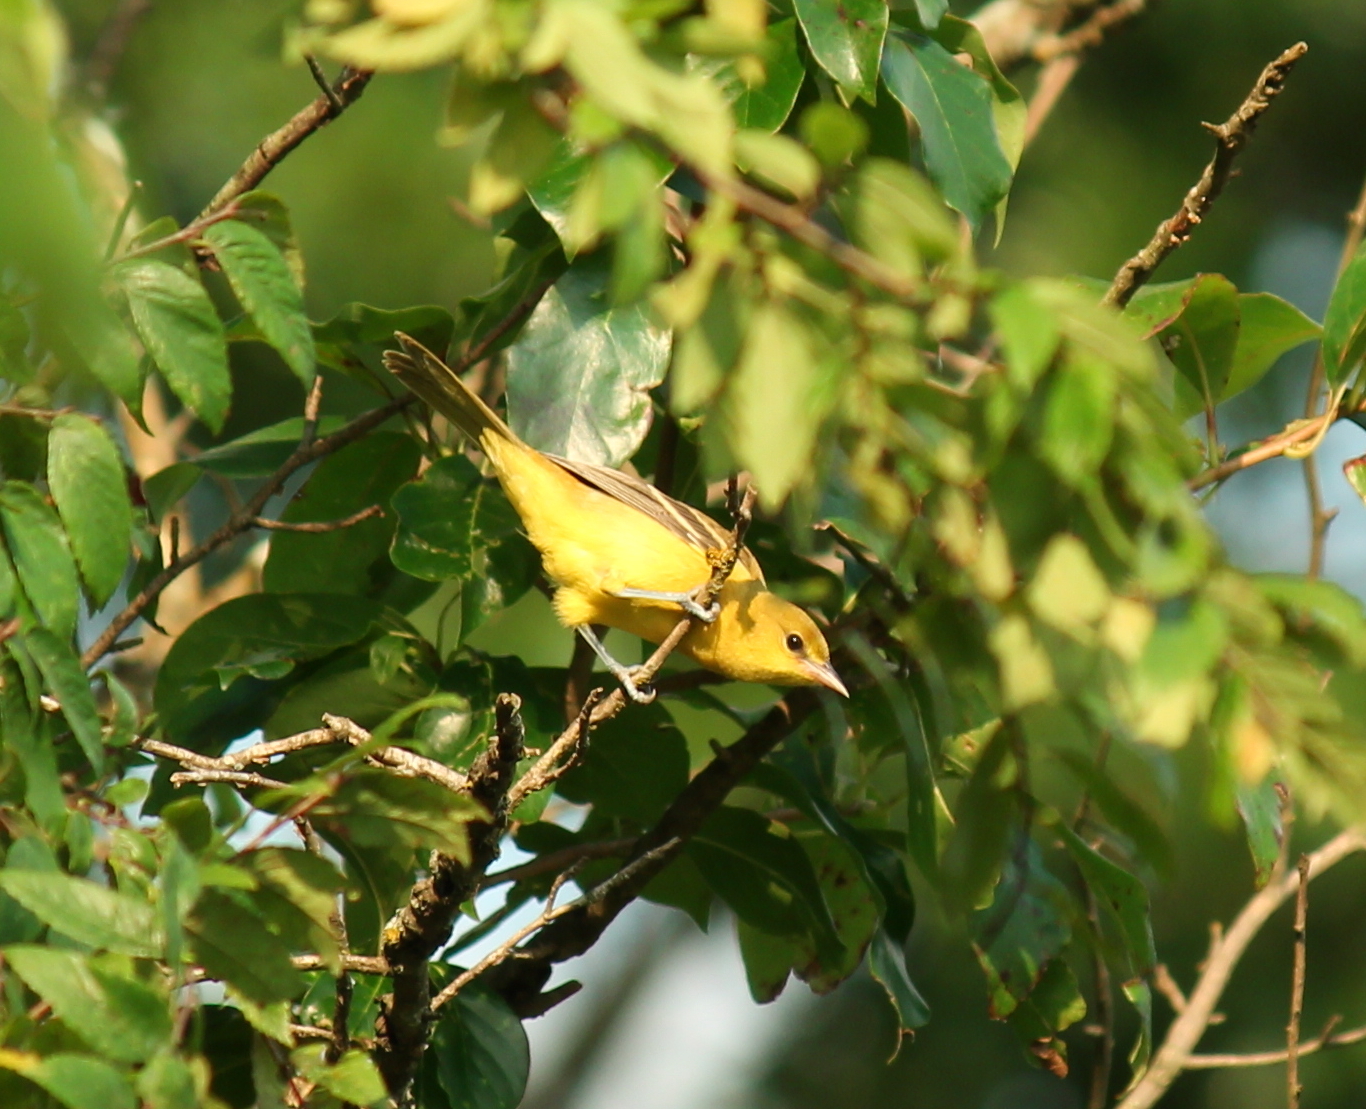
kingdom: Animalia
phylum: Chordata
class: Aves
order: Passeriformes
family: Icteridae
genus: Icterus
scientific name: Icterus spurius
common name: Orchard oriole
